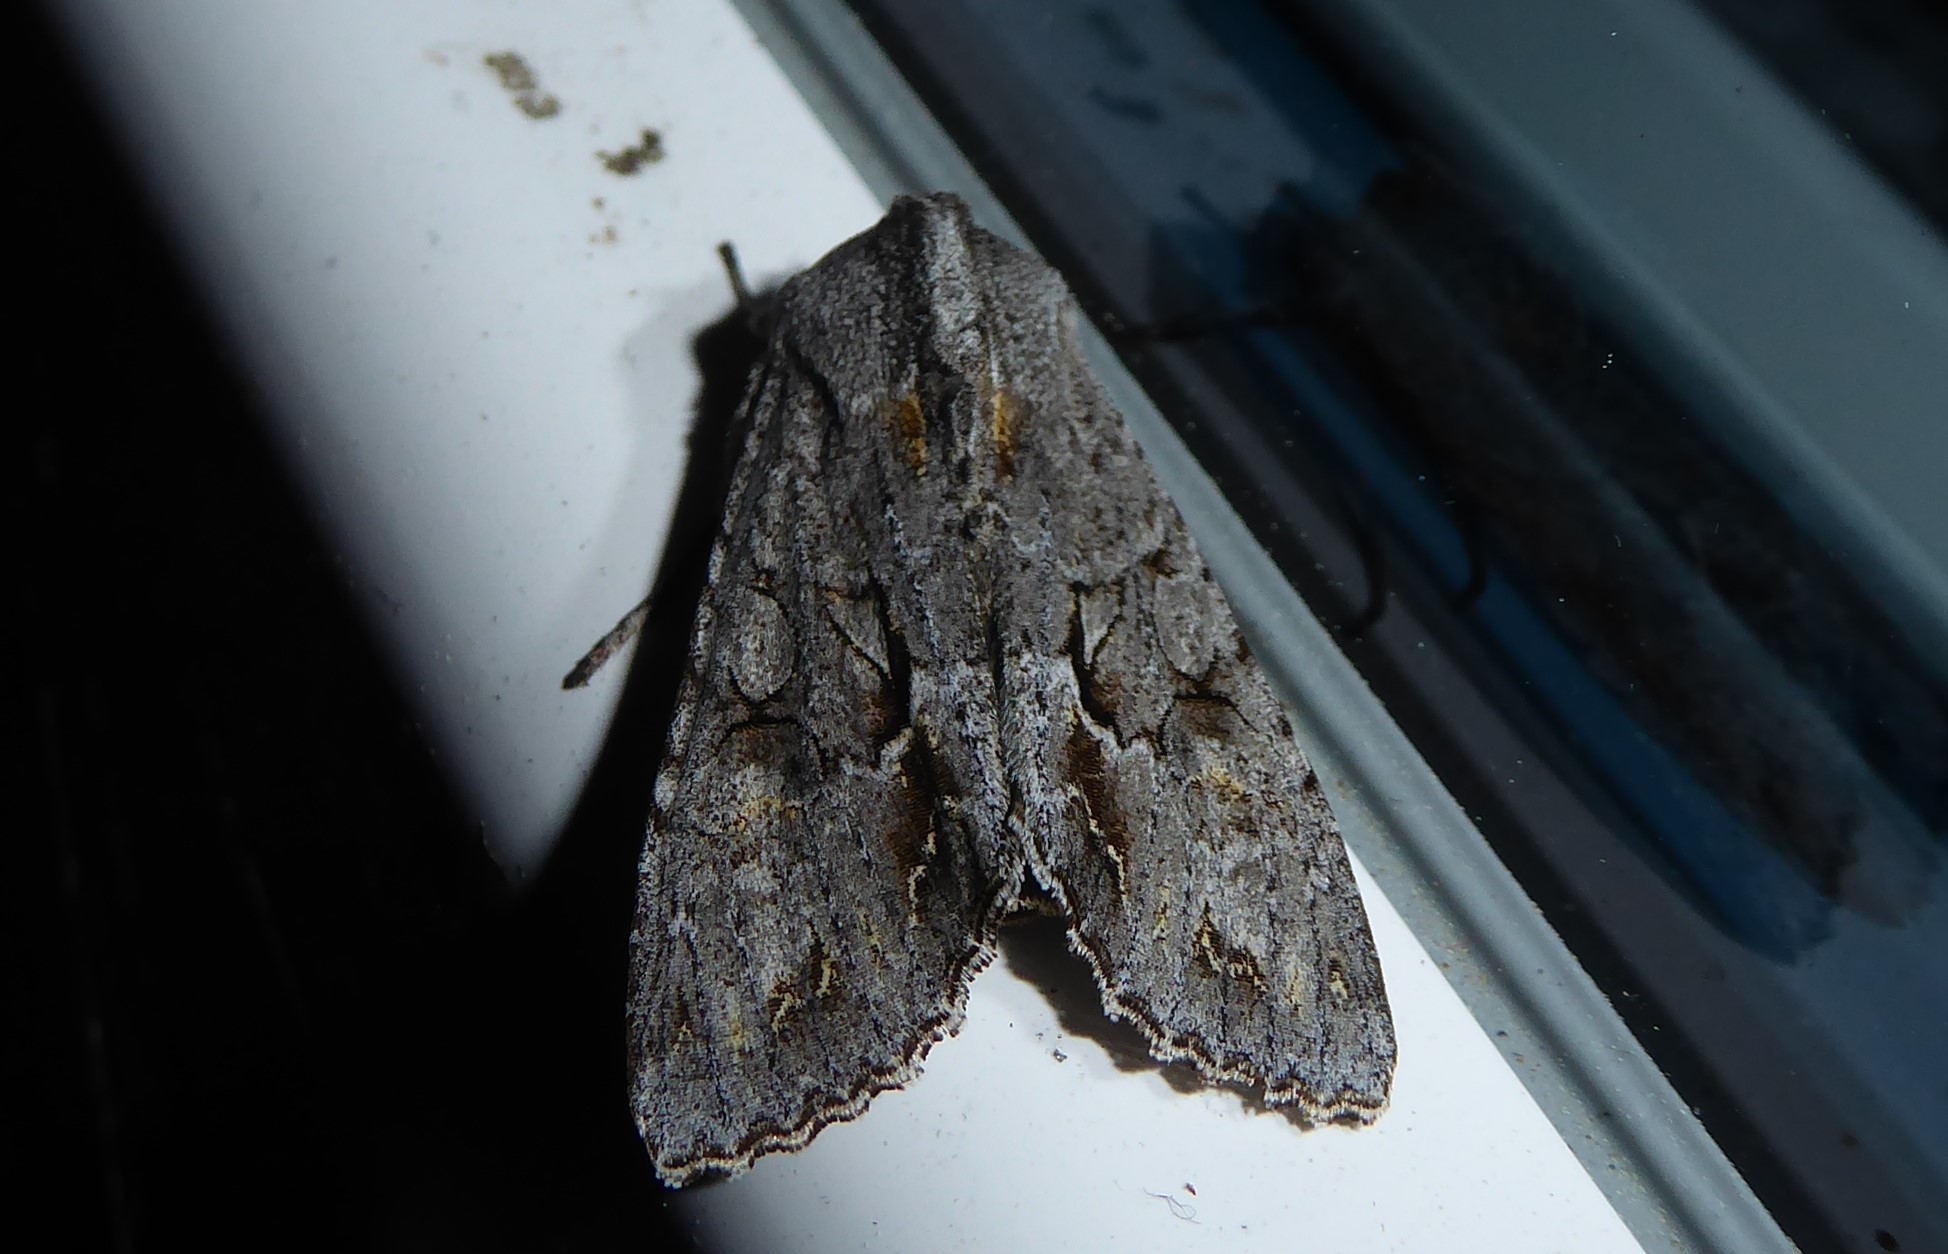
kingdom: Animalia
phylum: Arthropoda
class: Insecta
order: Lepidoptera
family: Noctuidae
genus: Ichneutica
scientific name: Ichneutica
